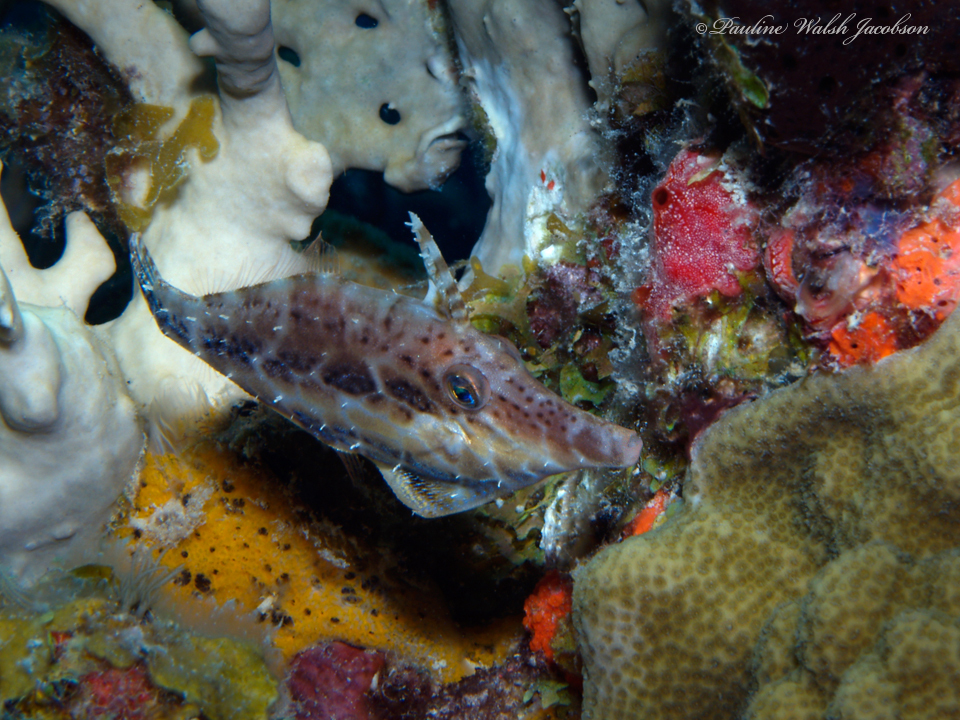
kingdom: Animalia
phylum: Chordata
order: Tetraodontiformes
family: Monacanthidae
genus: Monacanthus
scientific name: Monacanthus tuckeri
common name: Slender filefish
